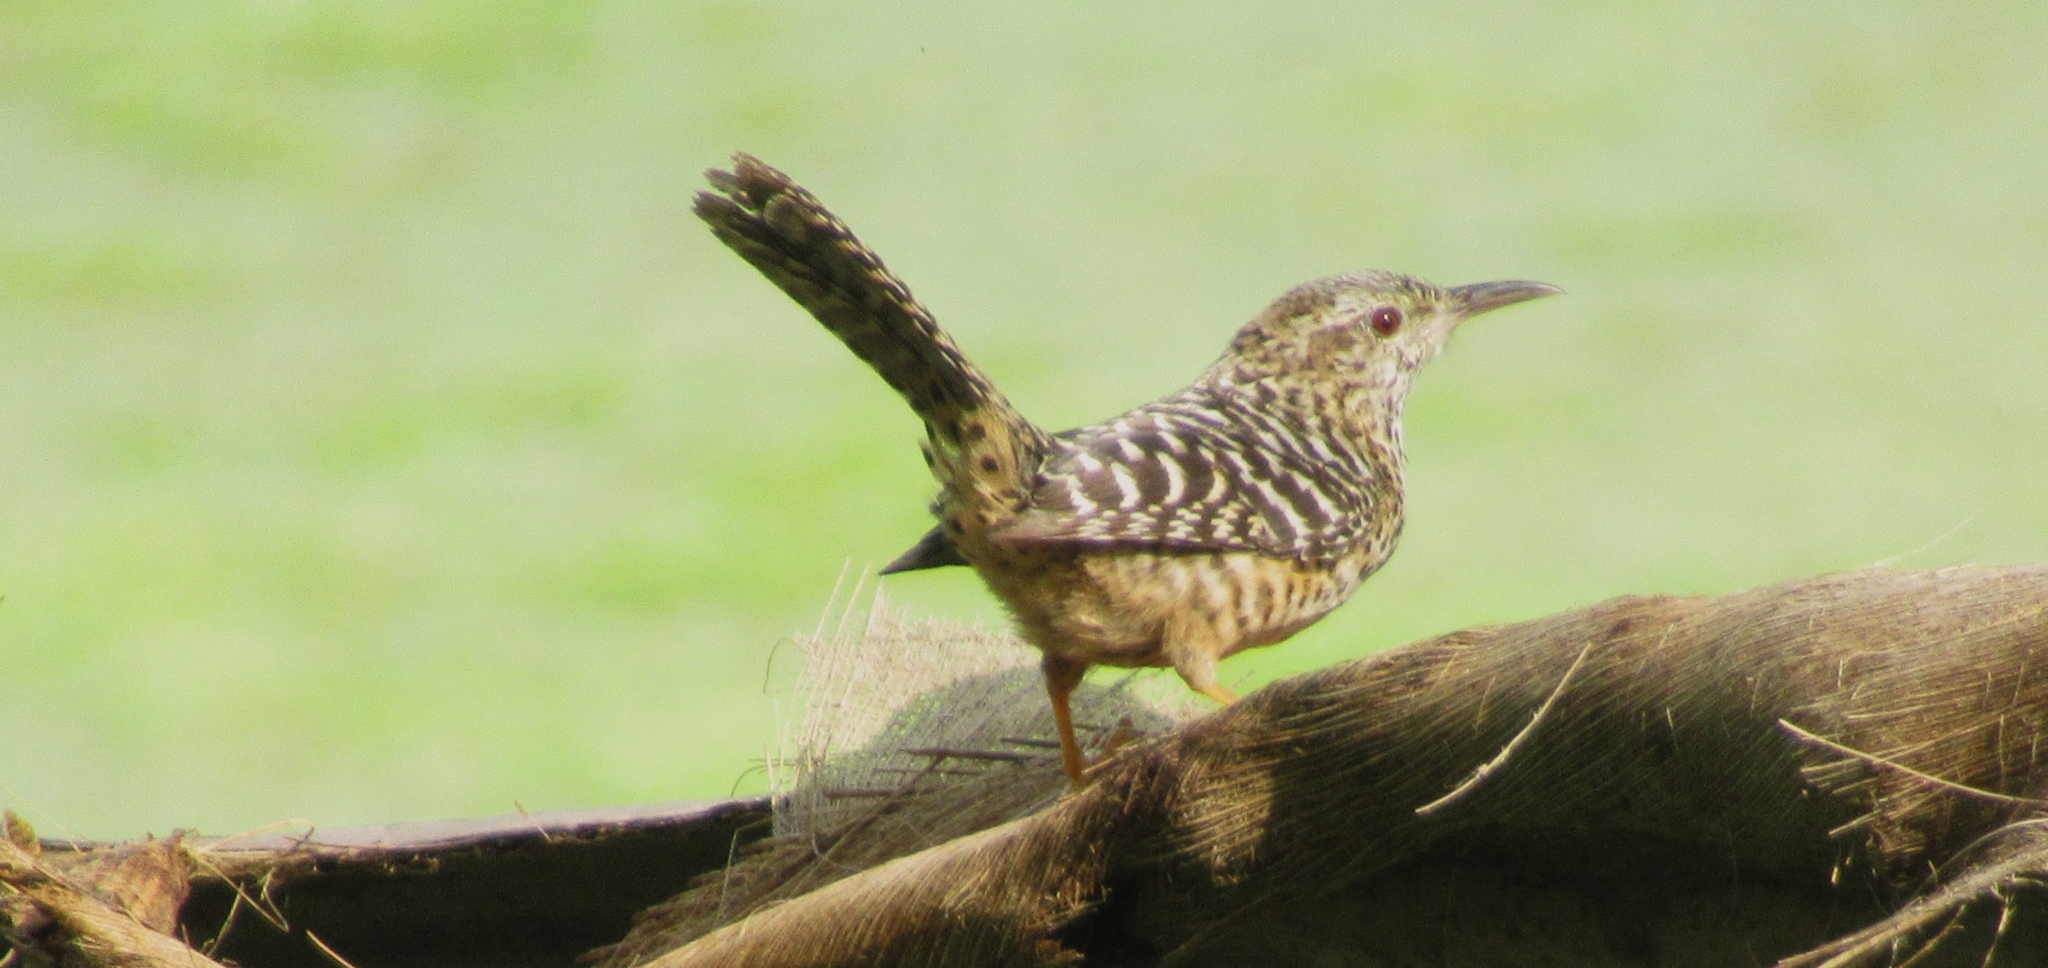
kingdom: Animalia
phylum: Chordata
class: Aves
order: Passeriformes
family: Troglodytidae
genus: Campylorhynchus
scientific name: Campylorhynchus zonatus
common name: Band-backed wren
